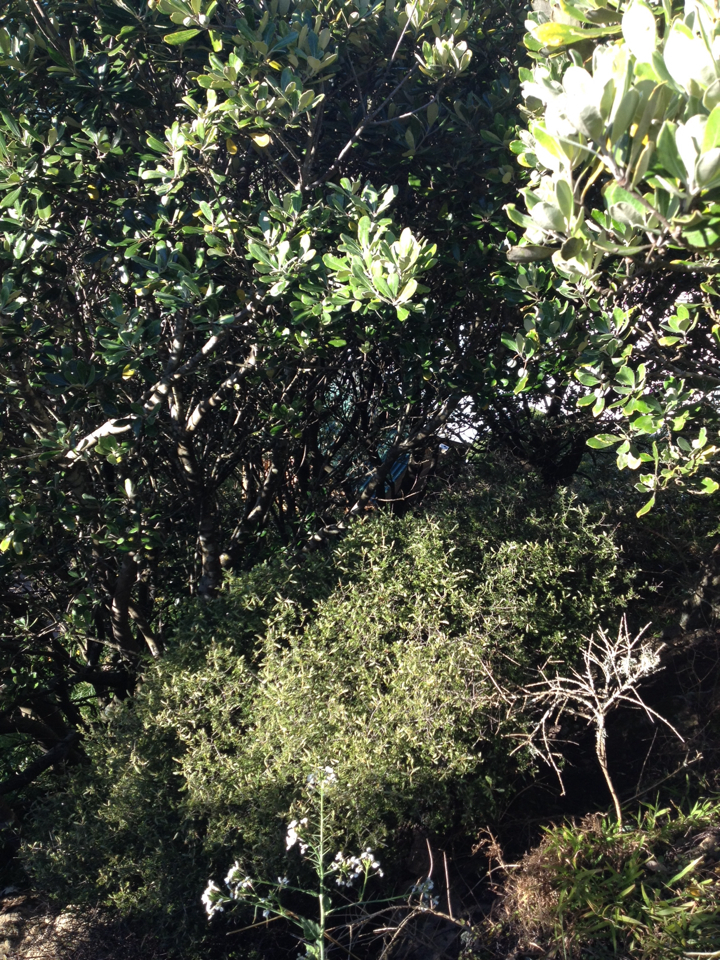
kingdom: Plantae
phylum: Tracheophyta
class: Magnoliopsida
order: Ericales
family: Ericaceae
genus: Leptecophylla
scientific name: Leptecophylla juniperina
